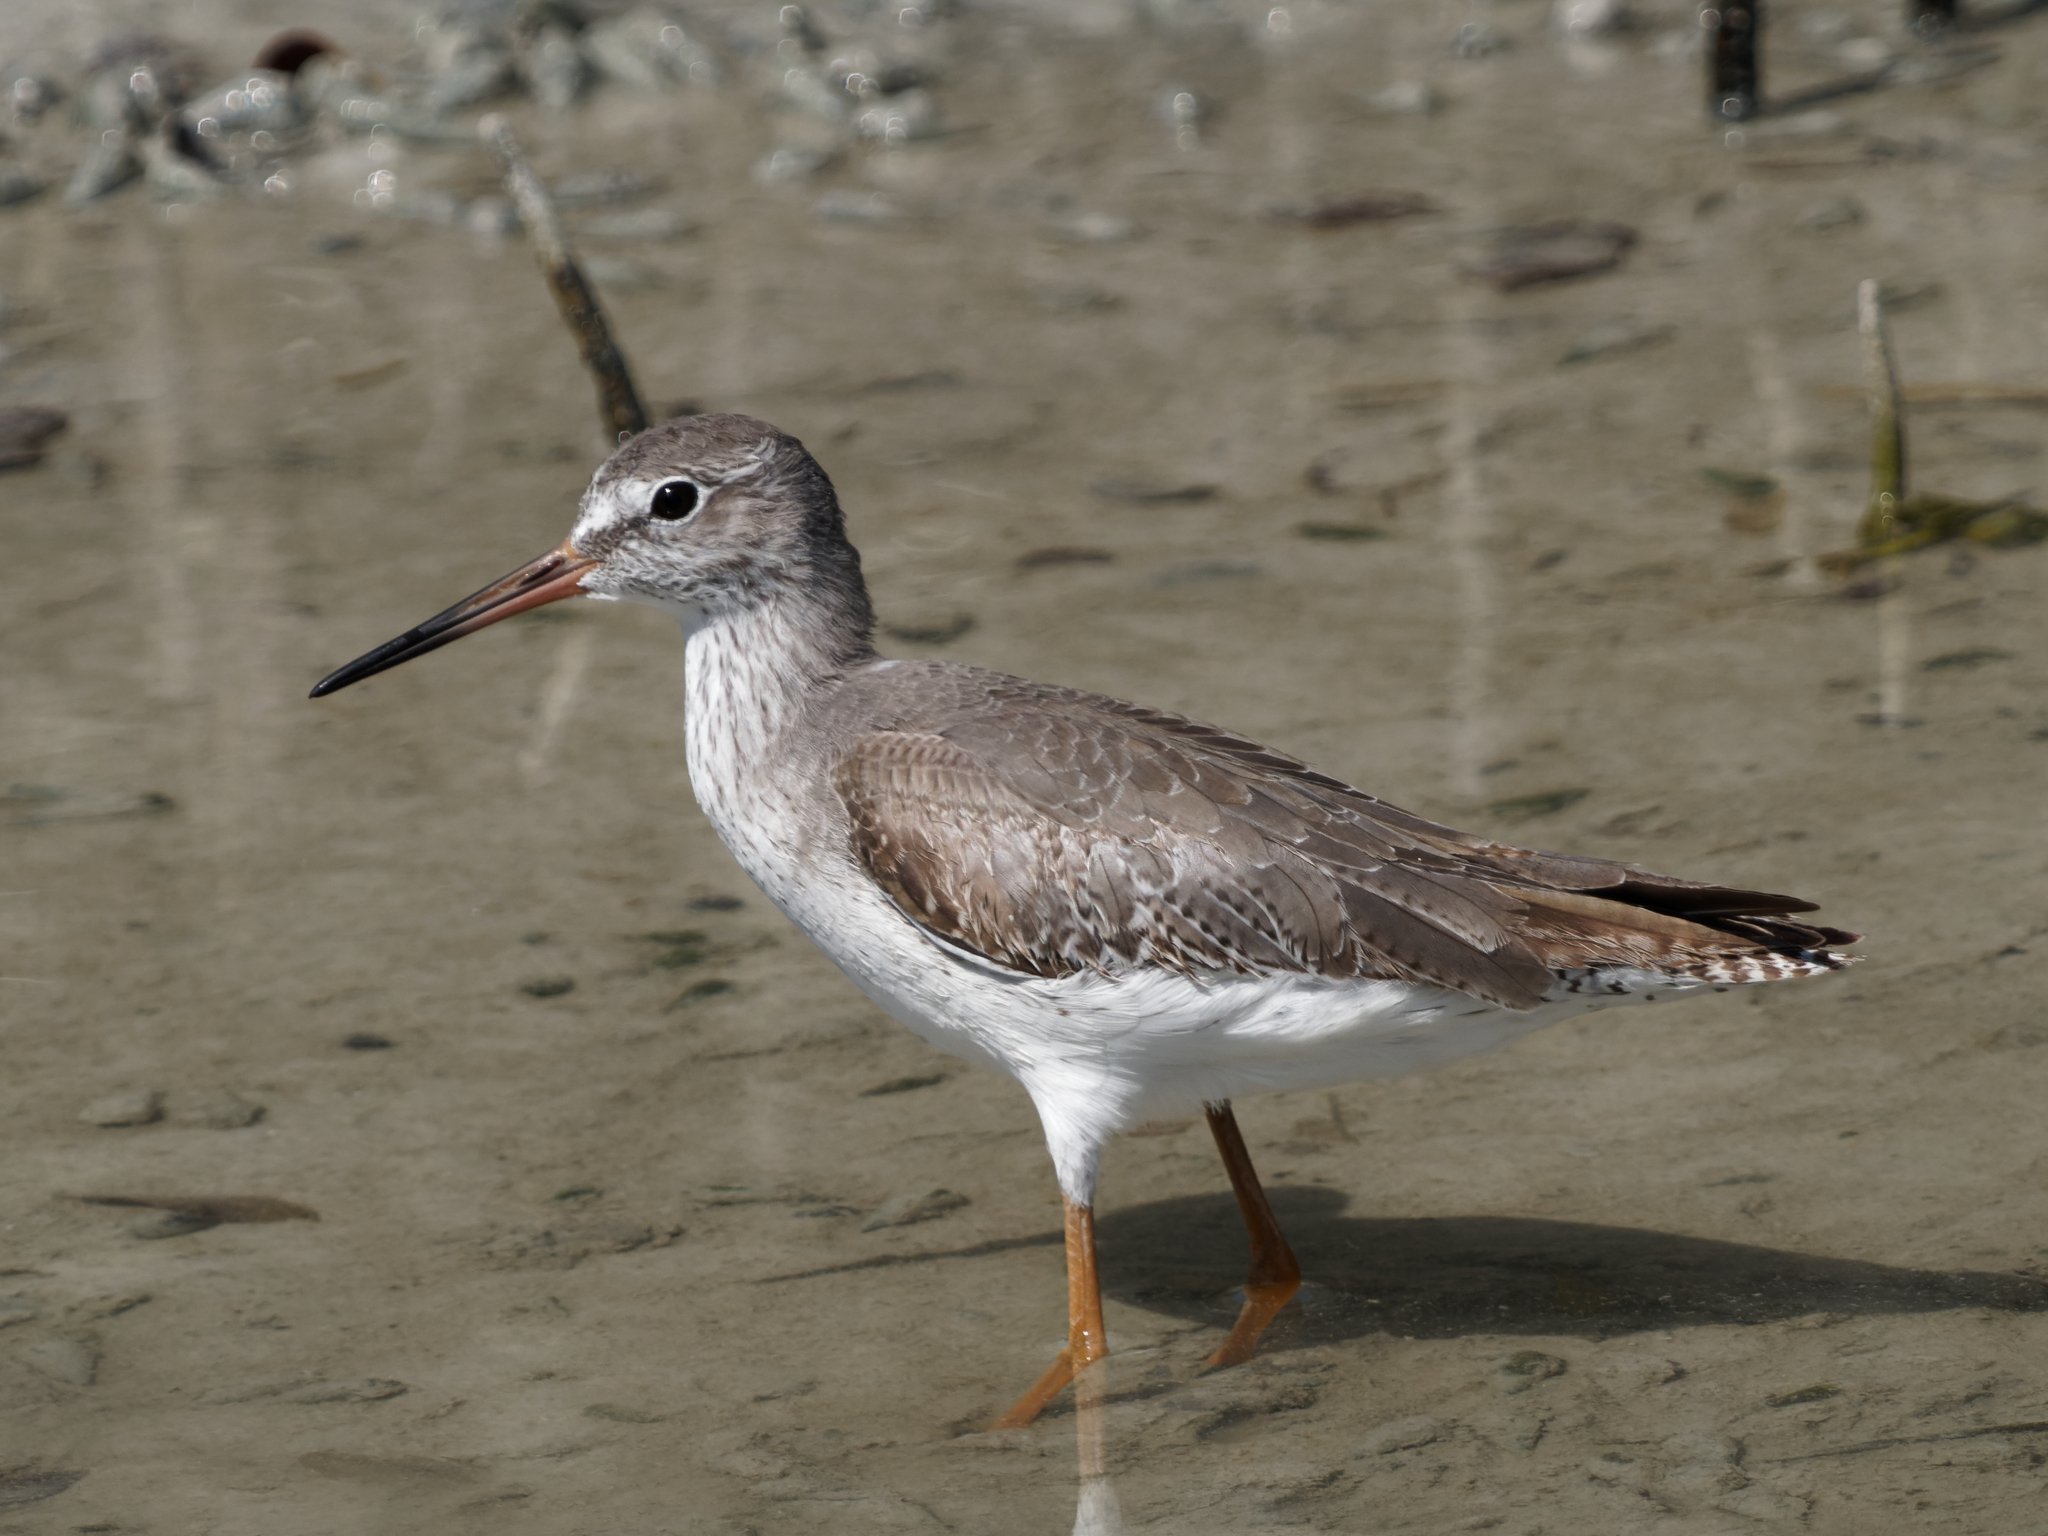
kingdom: Animalia
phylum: Chordata
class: Aves
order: Charadriiformes
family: Scolopacidae
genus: Tringa
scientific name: Tringa nebularia
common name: Common greenshank
